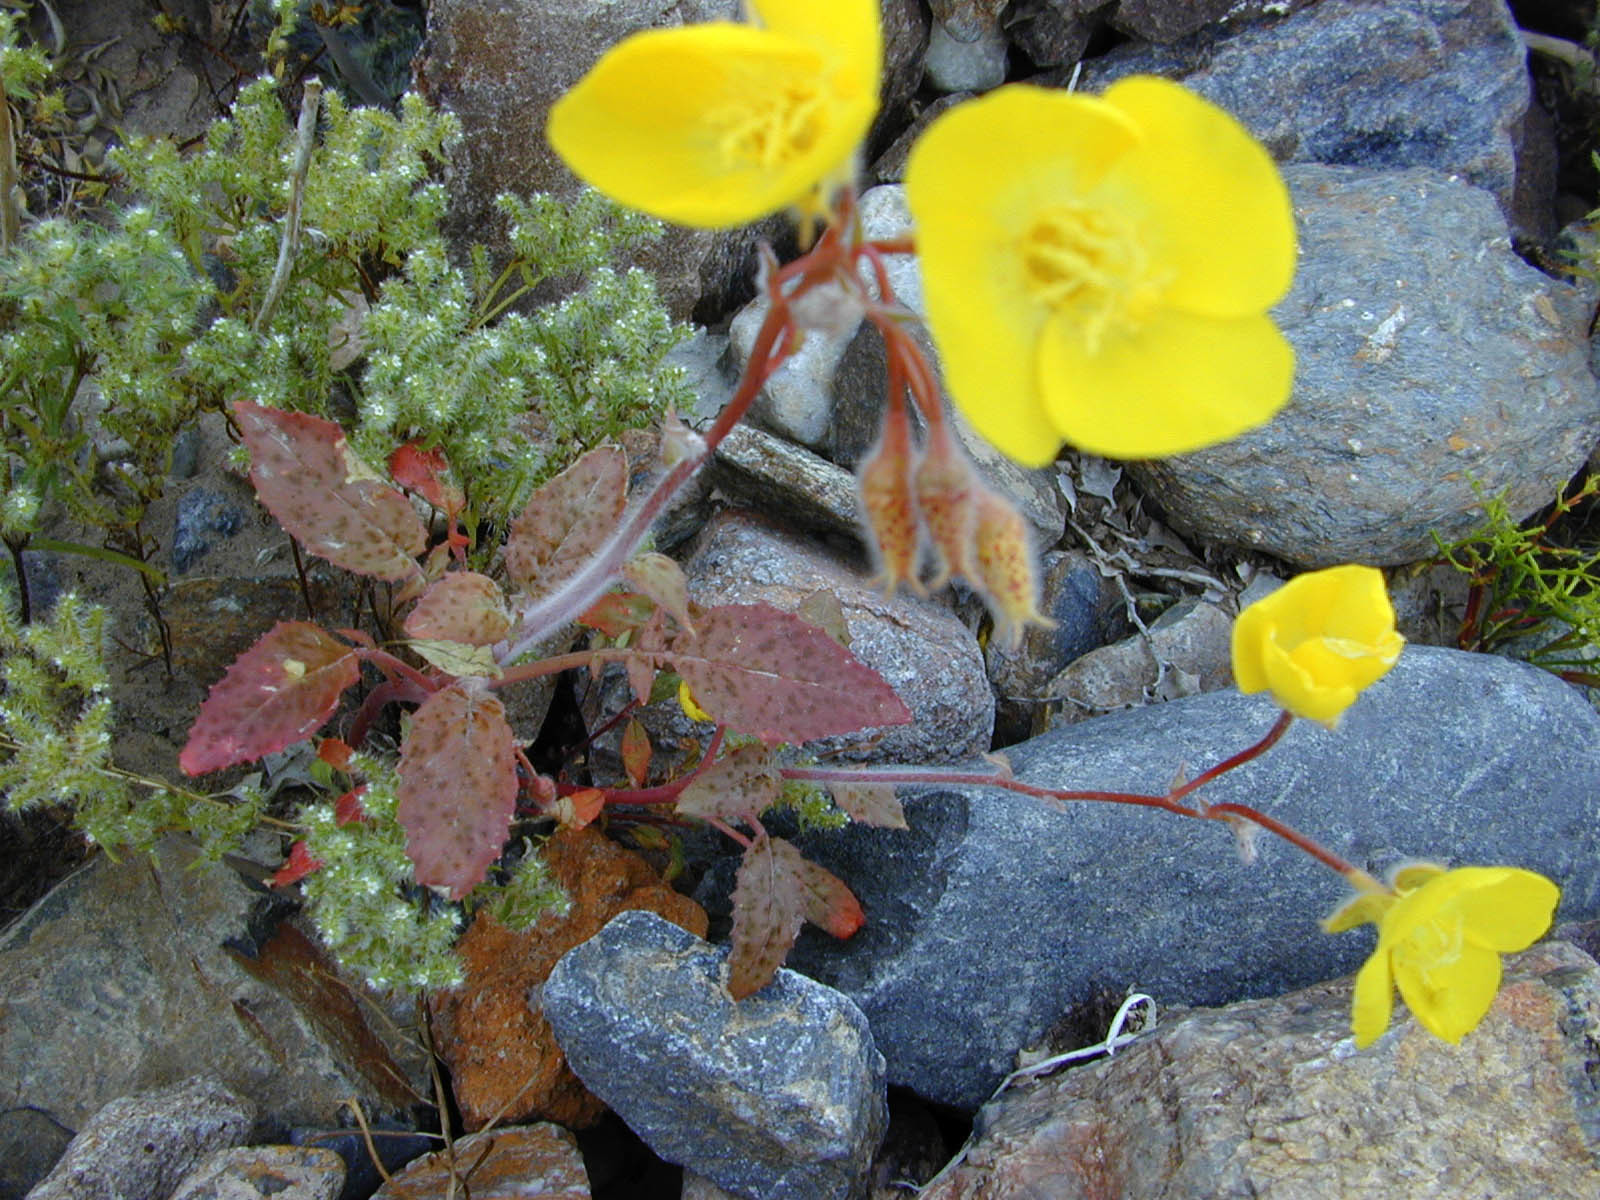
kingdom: Plantae
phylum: Tracheophyta
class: Magnoliopsida
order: Myrtales
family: Onagraceae
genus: Chylismia
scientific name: Chylismia brevipes
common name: Yellow cups
